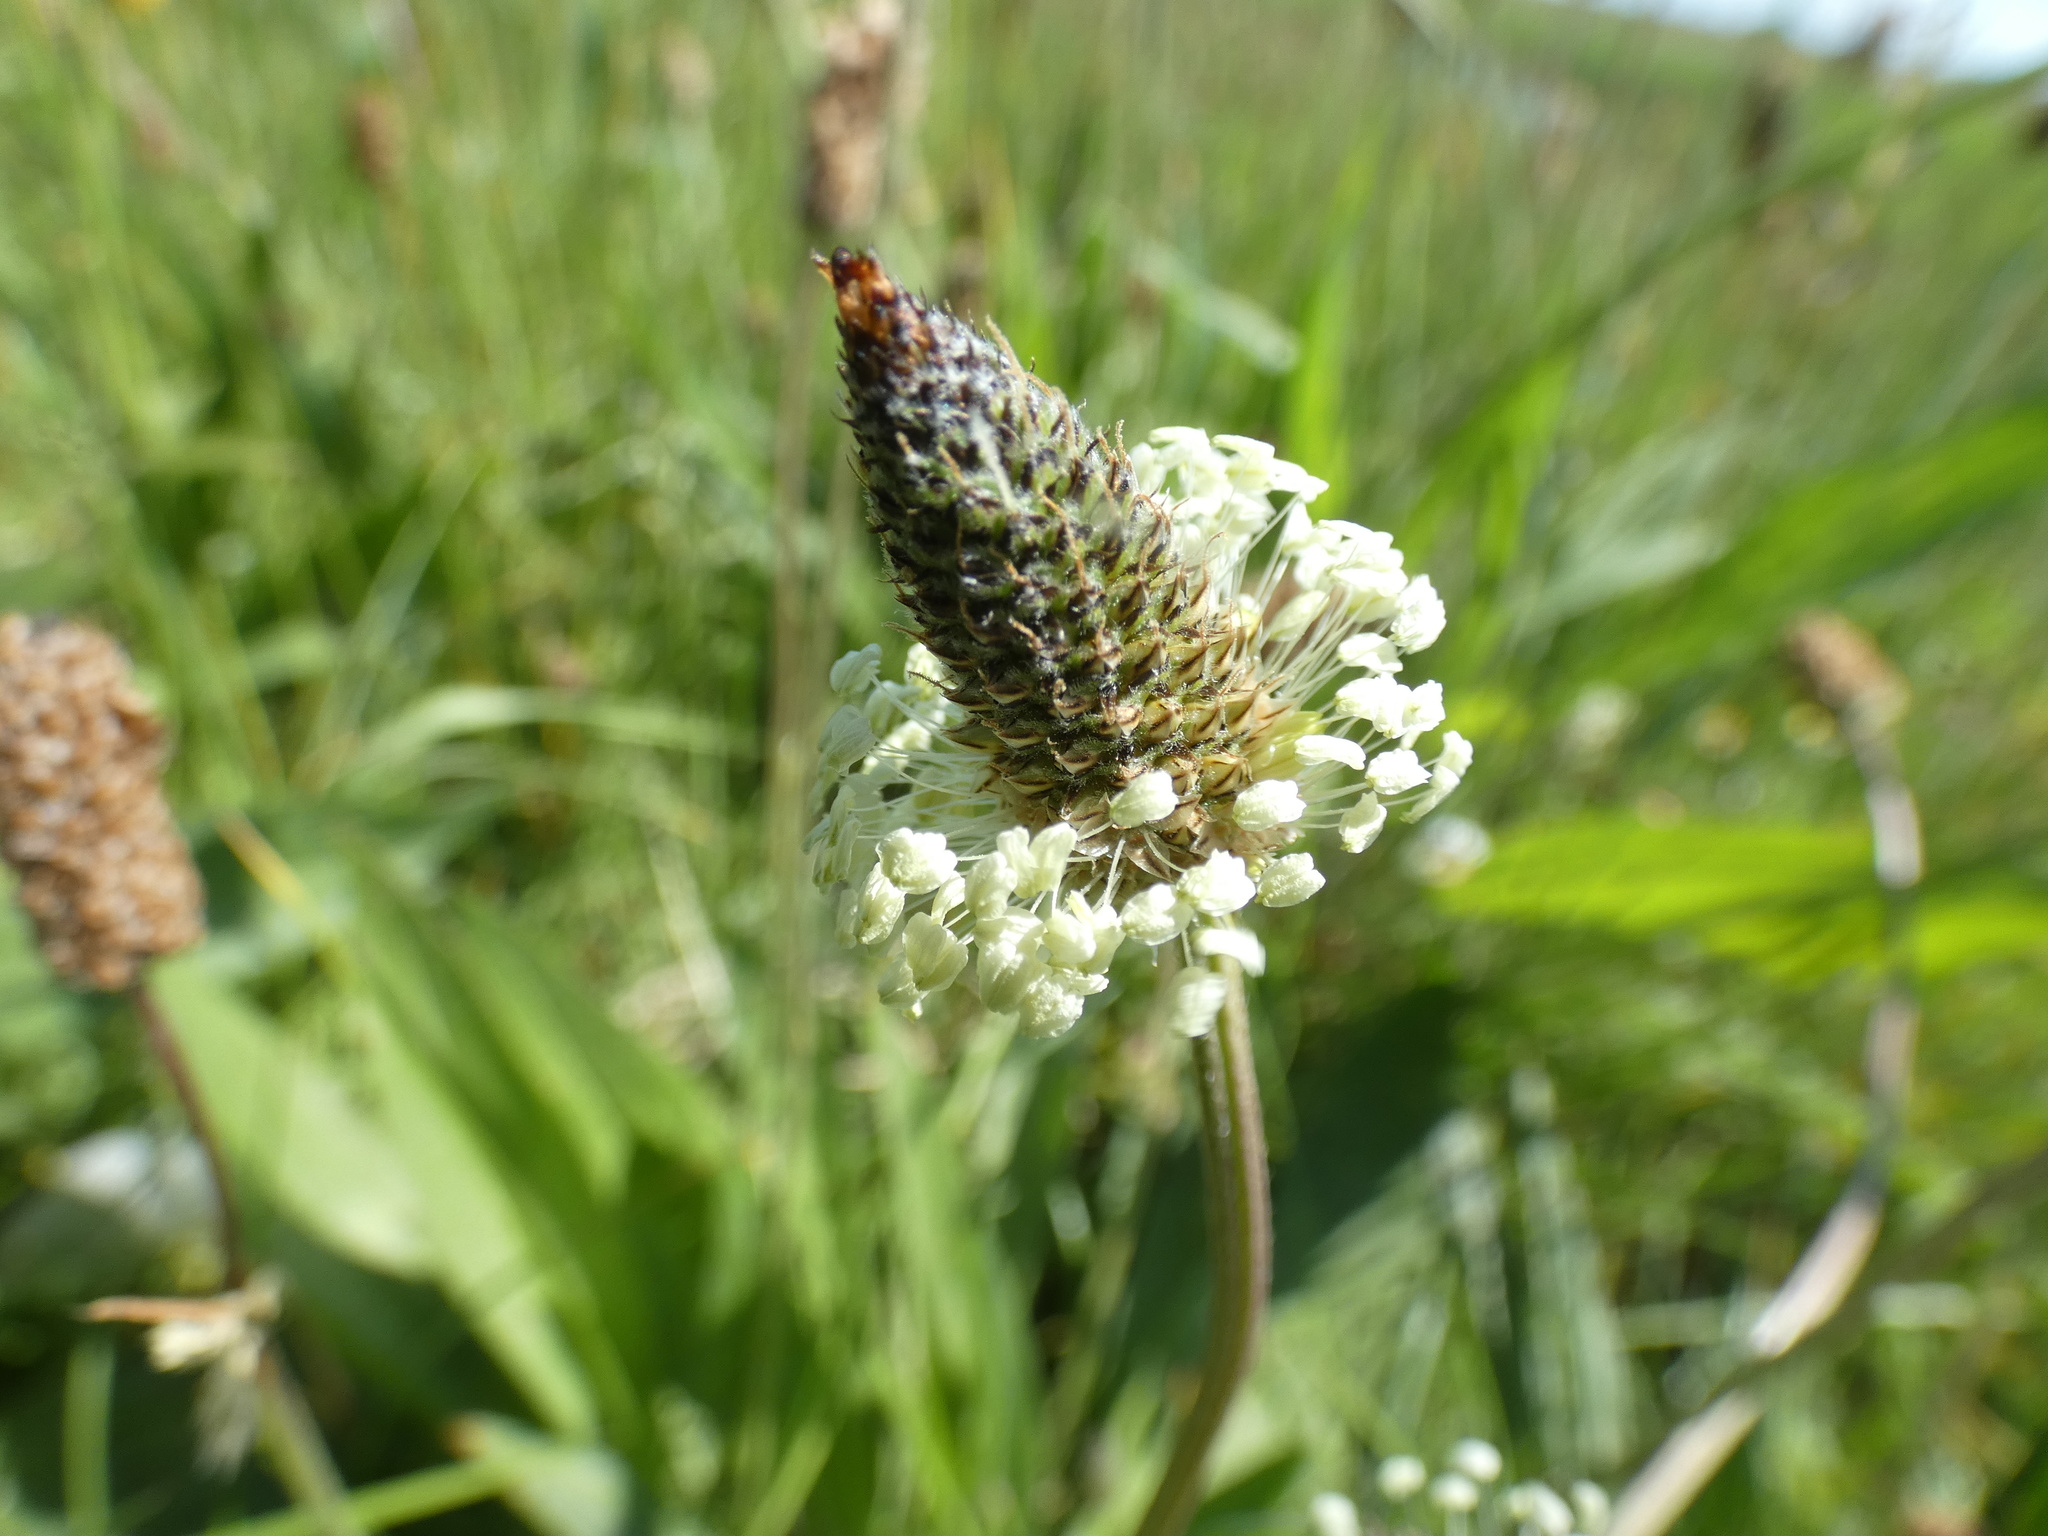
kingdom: Plantae
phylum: Tracheophyta
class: Magnoliopsida
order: Lamiales
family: Plantaginaceae
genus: Plantago
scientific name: Plantago lanceolata
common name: Ribwort plantain
